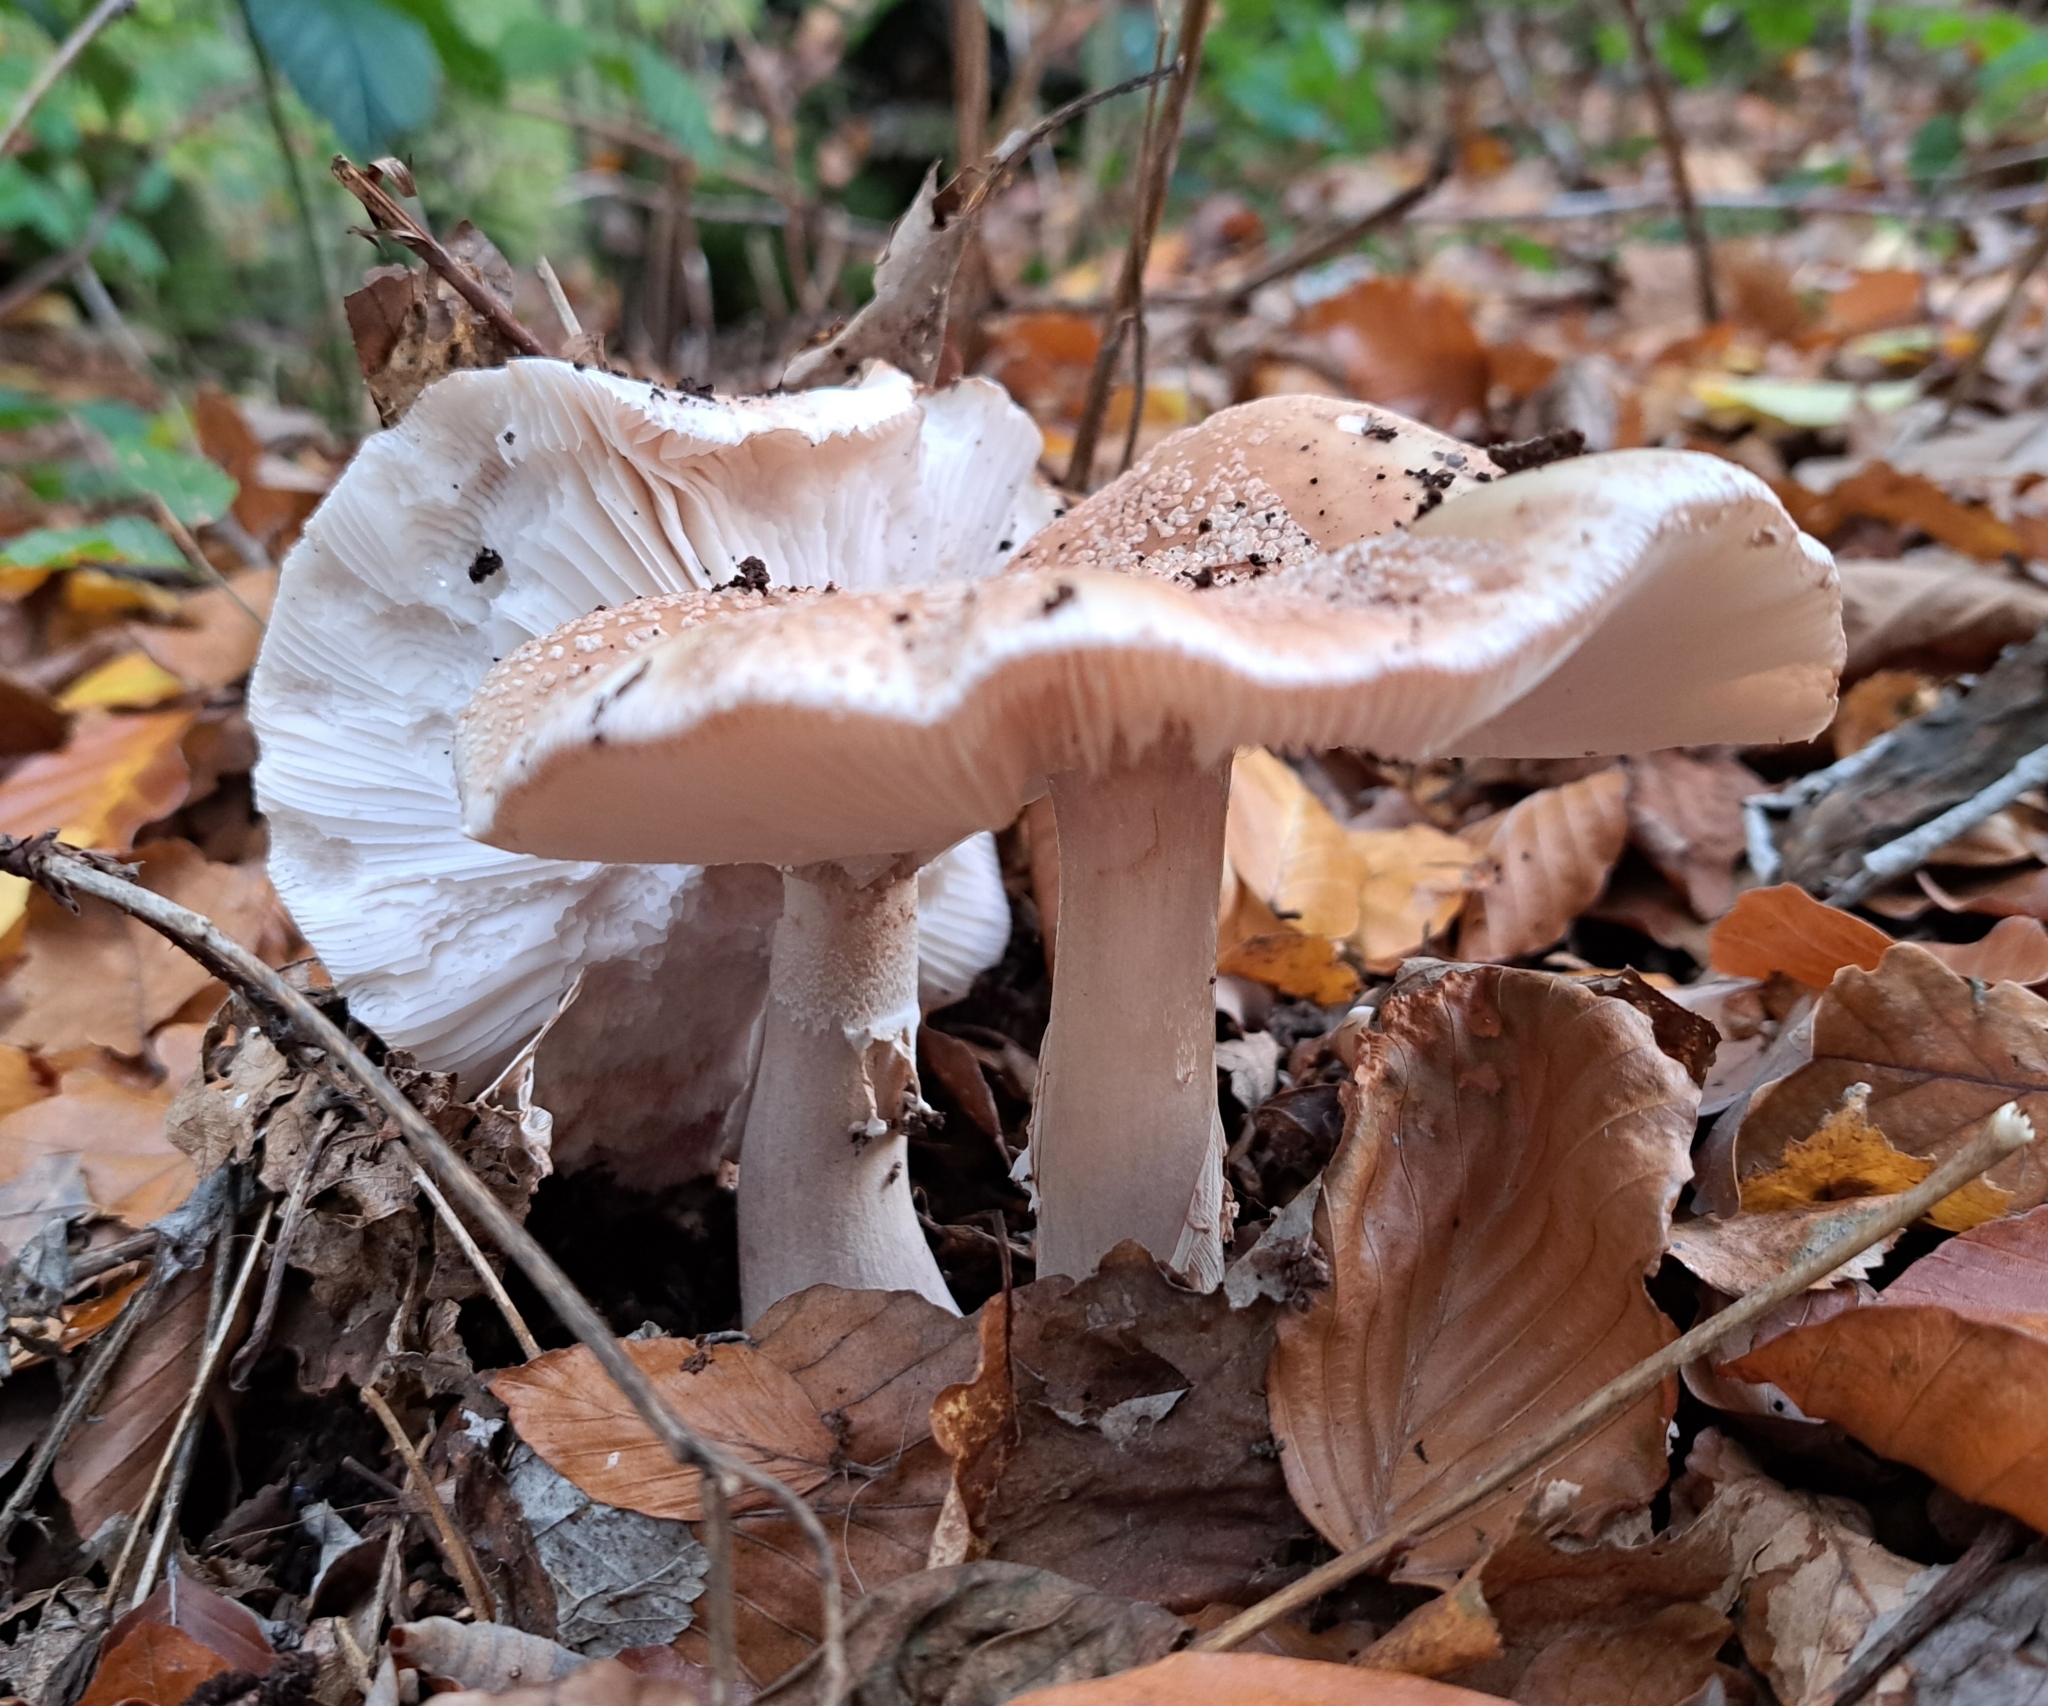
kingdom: Fungi
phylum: Basidiomycota
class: Agaricomycetes
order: Agaricales
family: Amanitaceae
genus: Amanita
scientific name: Amanita rubescens
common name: Blusher
